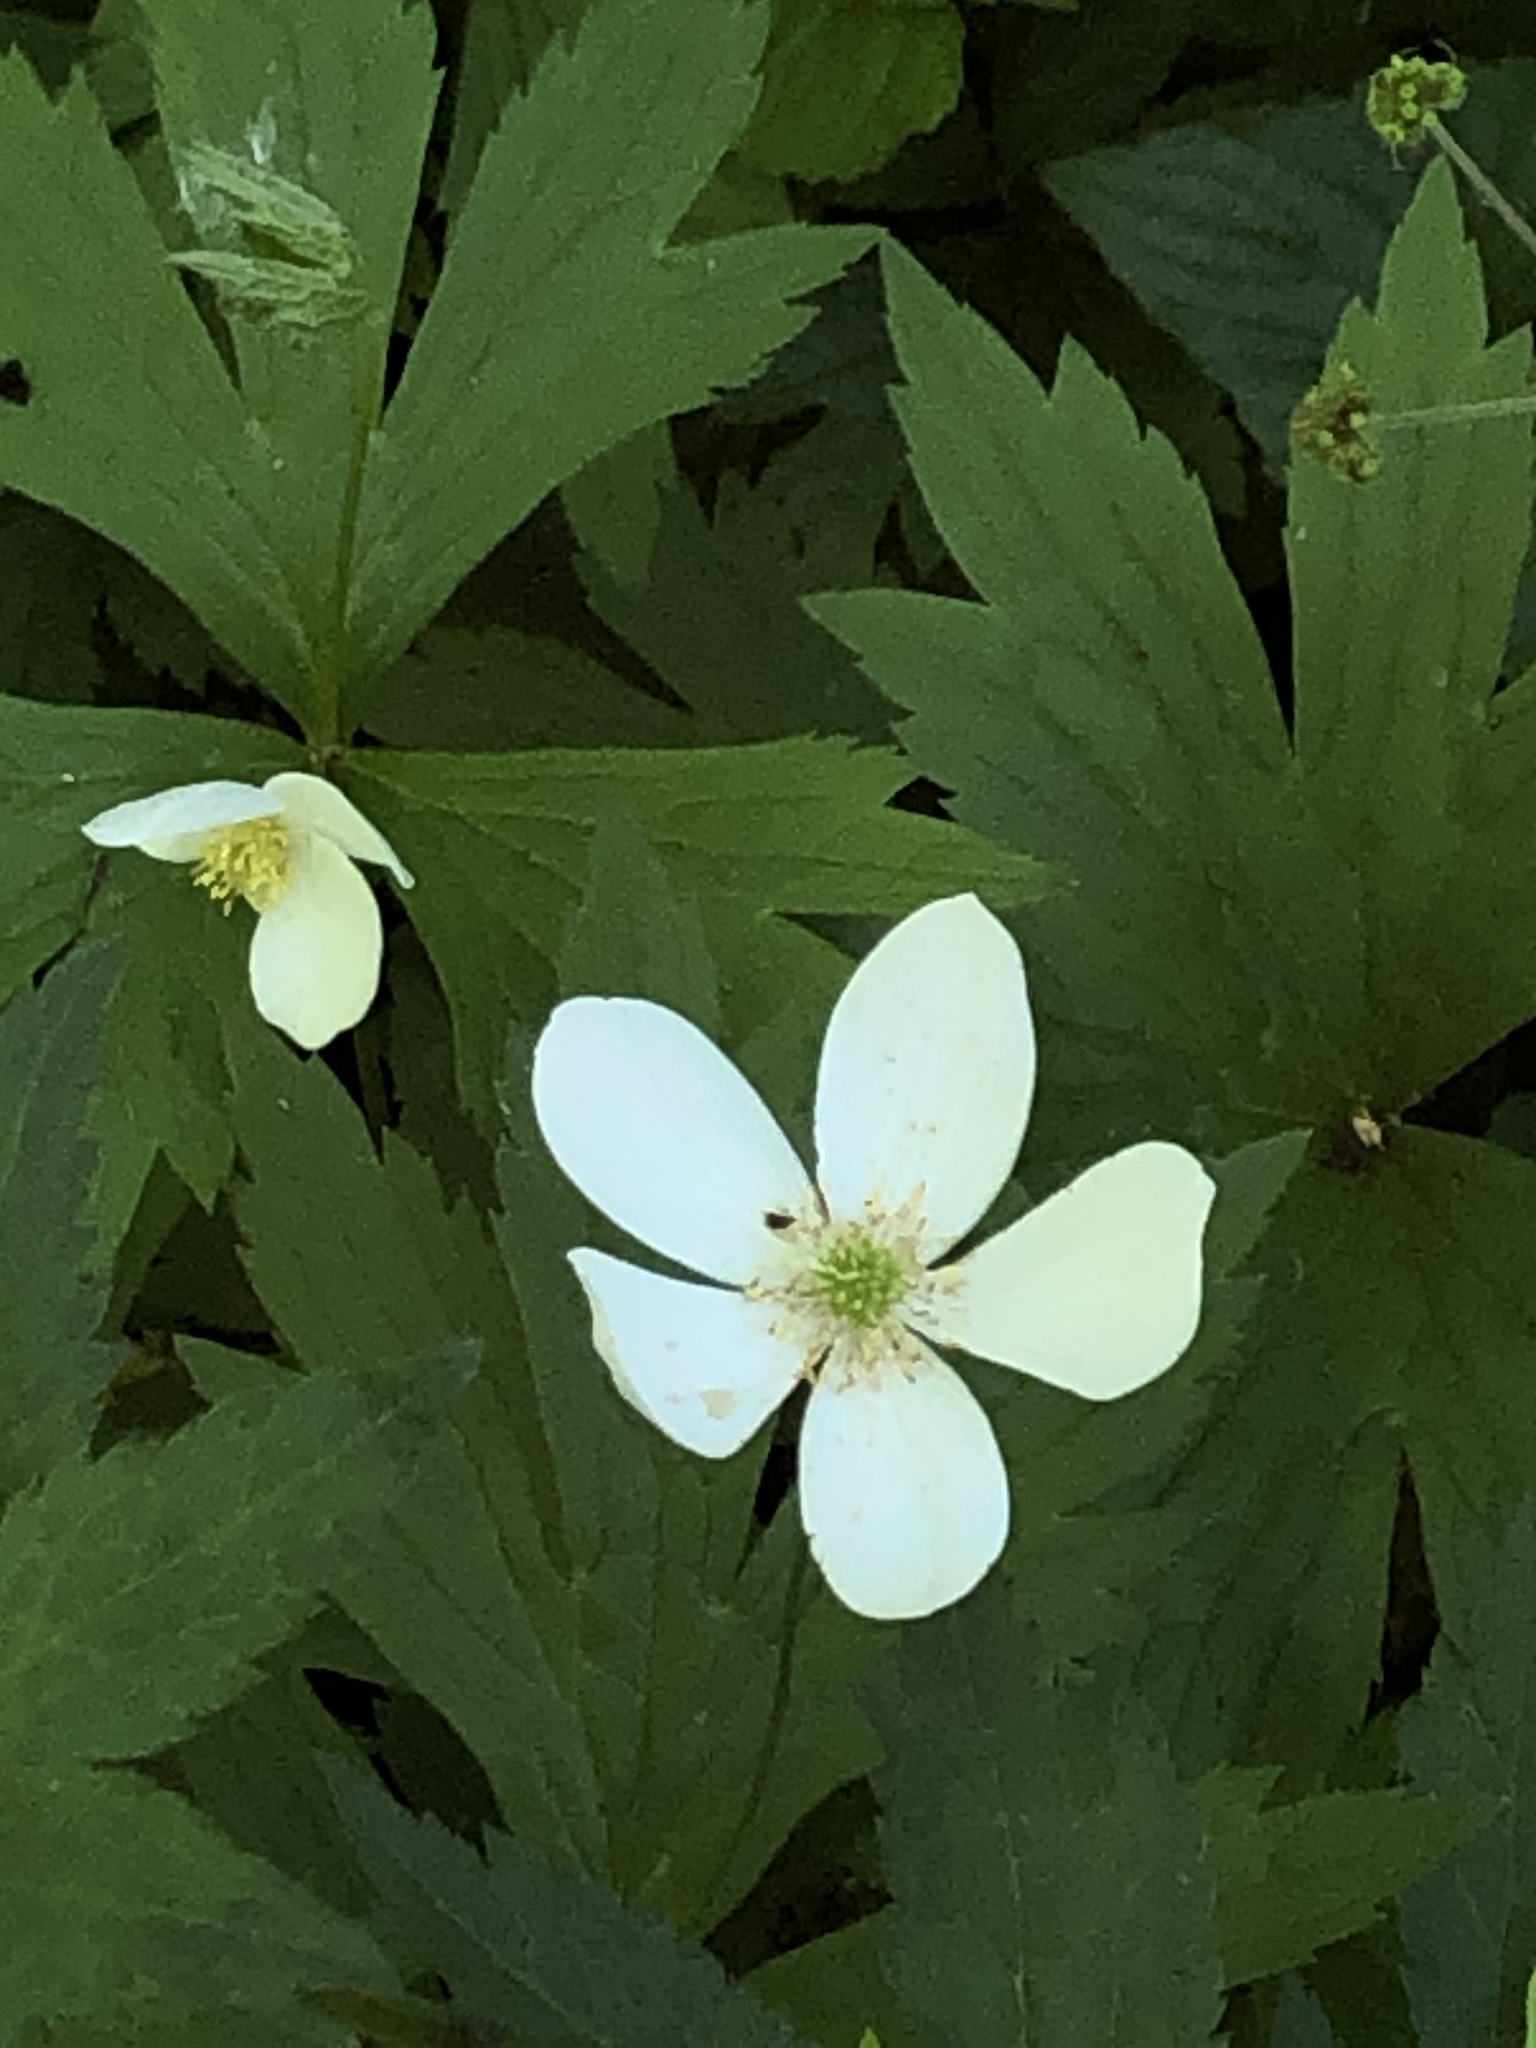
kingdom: Plantae
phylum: Tracheophyta
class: Magnoliopsida
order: Ranunculales
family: Ranunculaceae
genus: Anemonastrum
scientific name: Anemonastrum canadense
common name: Canada anemone
